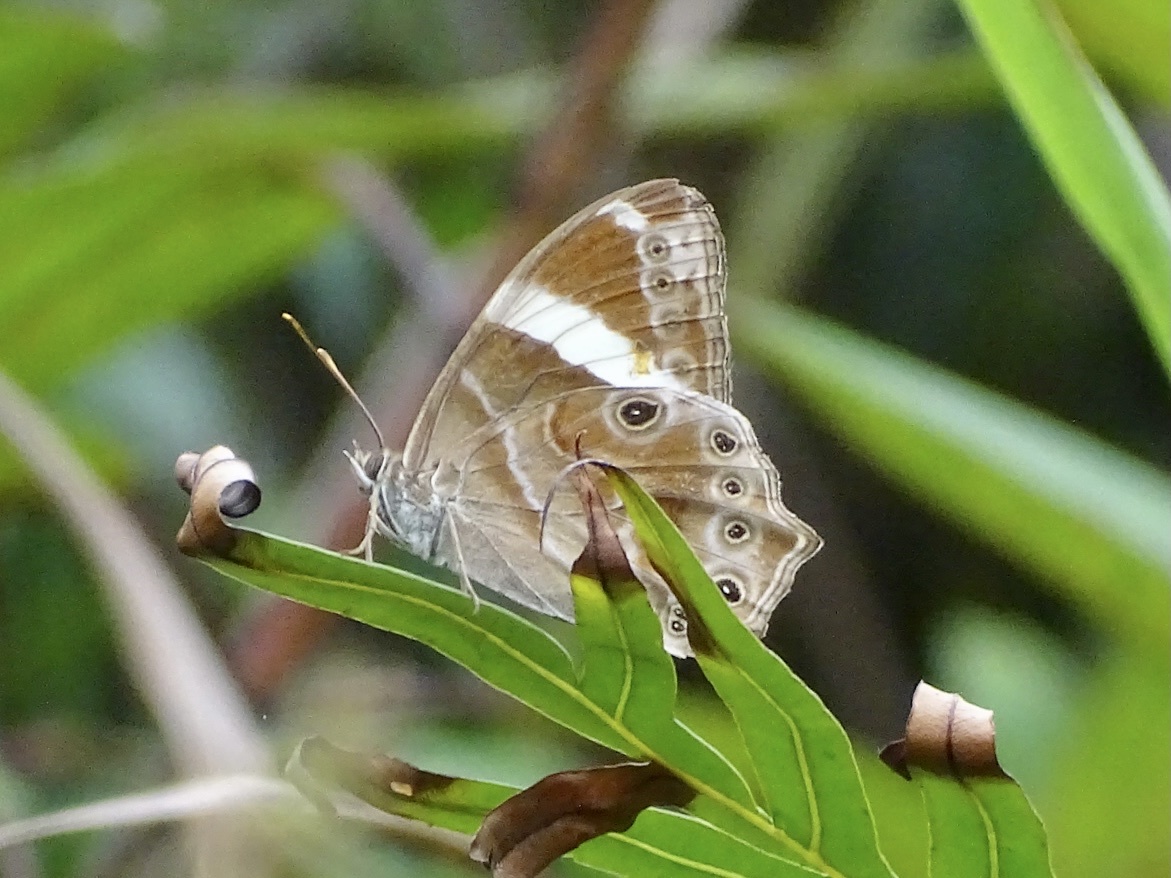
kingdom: Animalia
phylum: Arthropoda
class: Insecta
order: Lepidoptera
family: Nymphalidae
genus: Lethe
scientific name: Lethe confusa
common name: Banded treebrown
